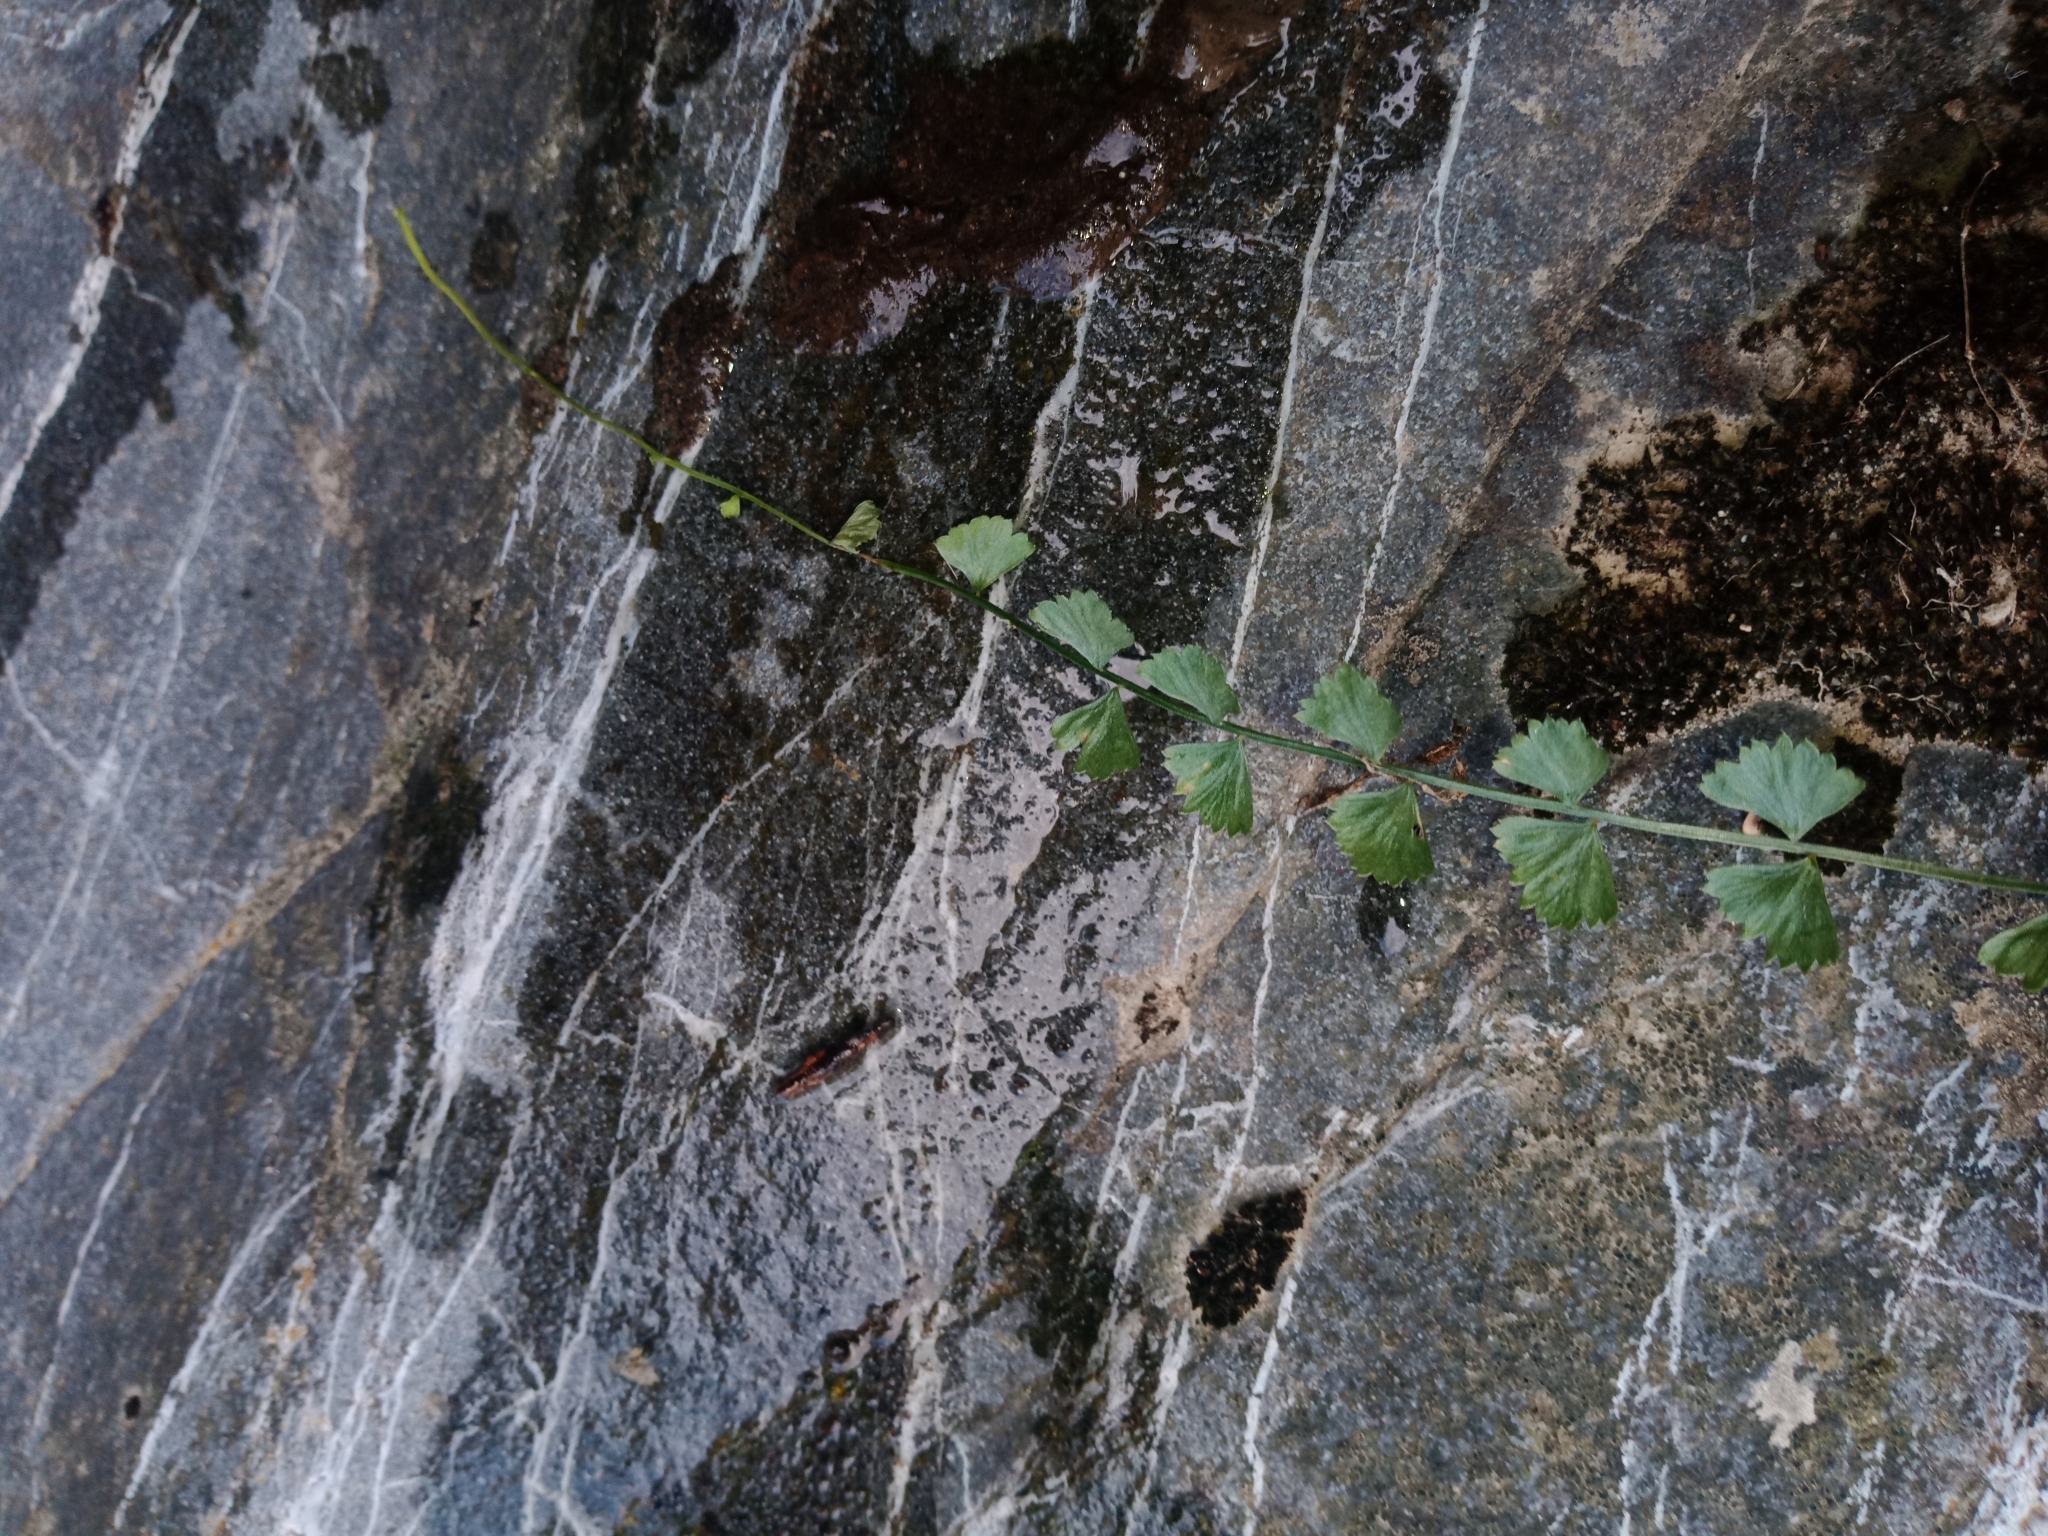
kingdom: Plantae
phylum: Tracheophyta
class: Polypodiopsida
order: Polypodiales
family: Aspleniaceae
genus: Asplenium
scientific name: Asplenium flabellifolium
